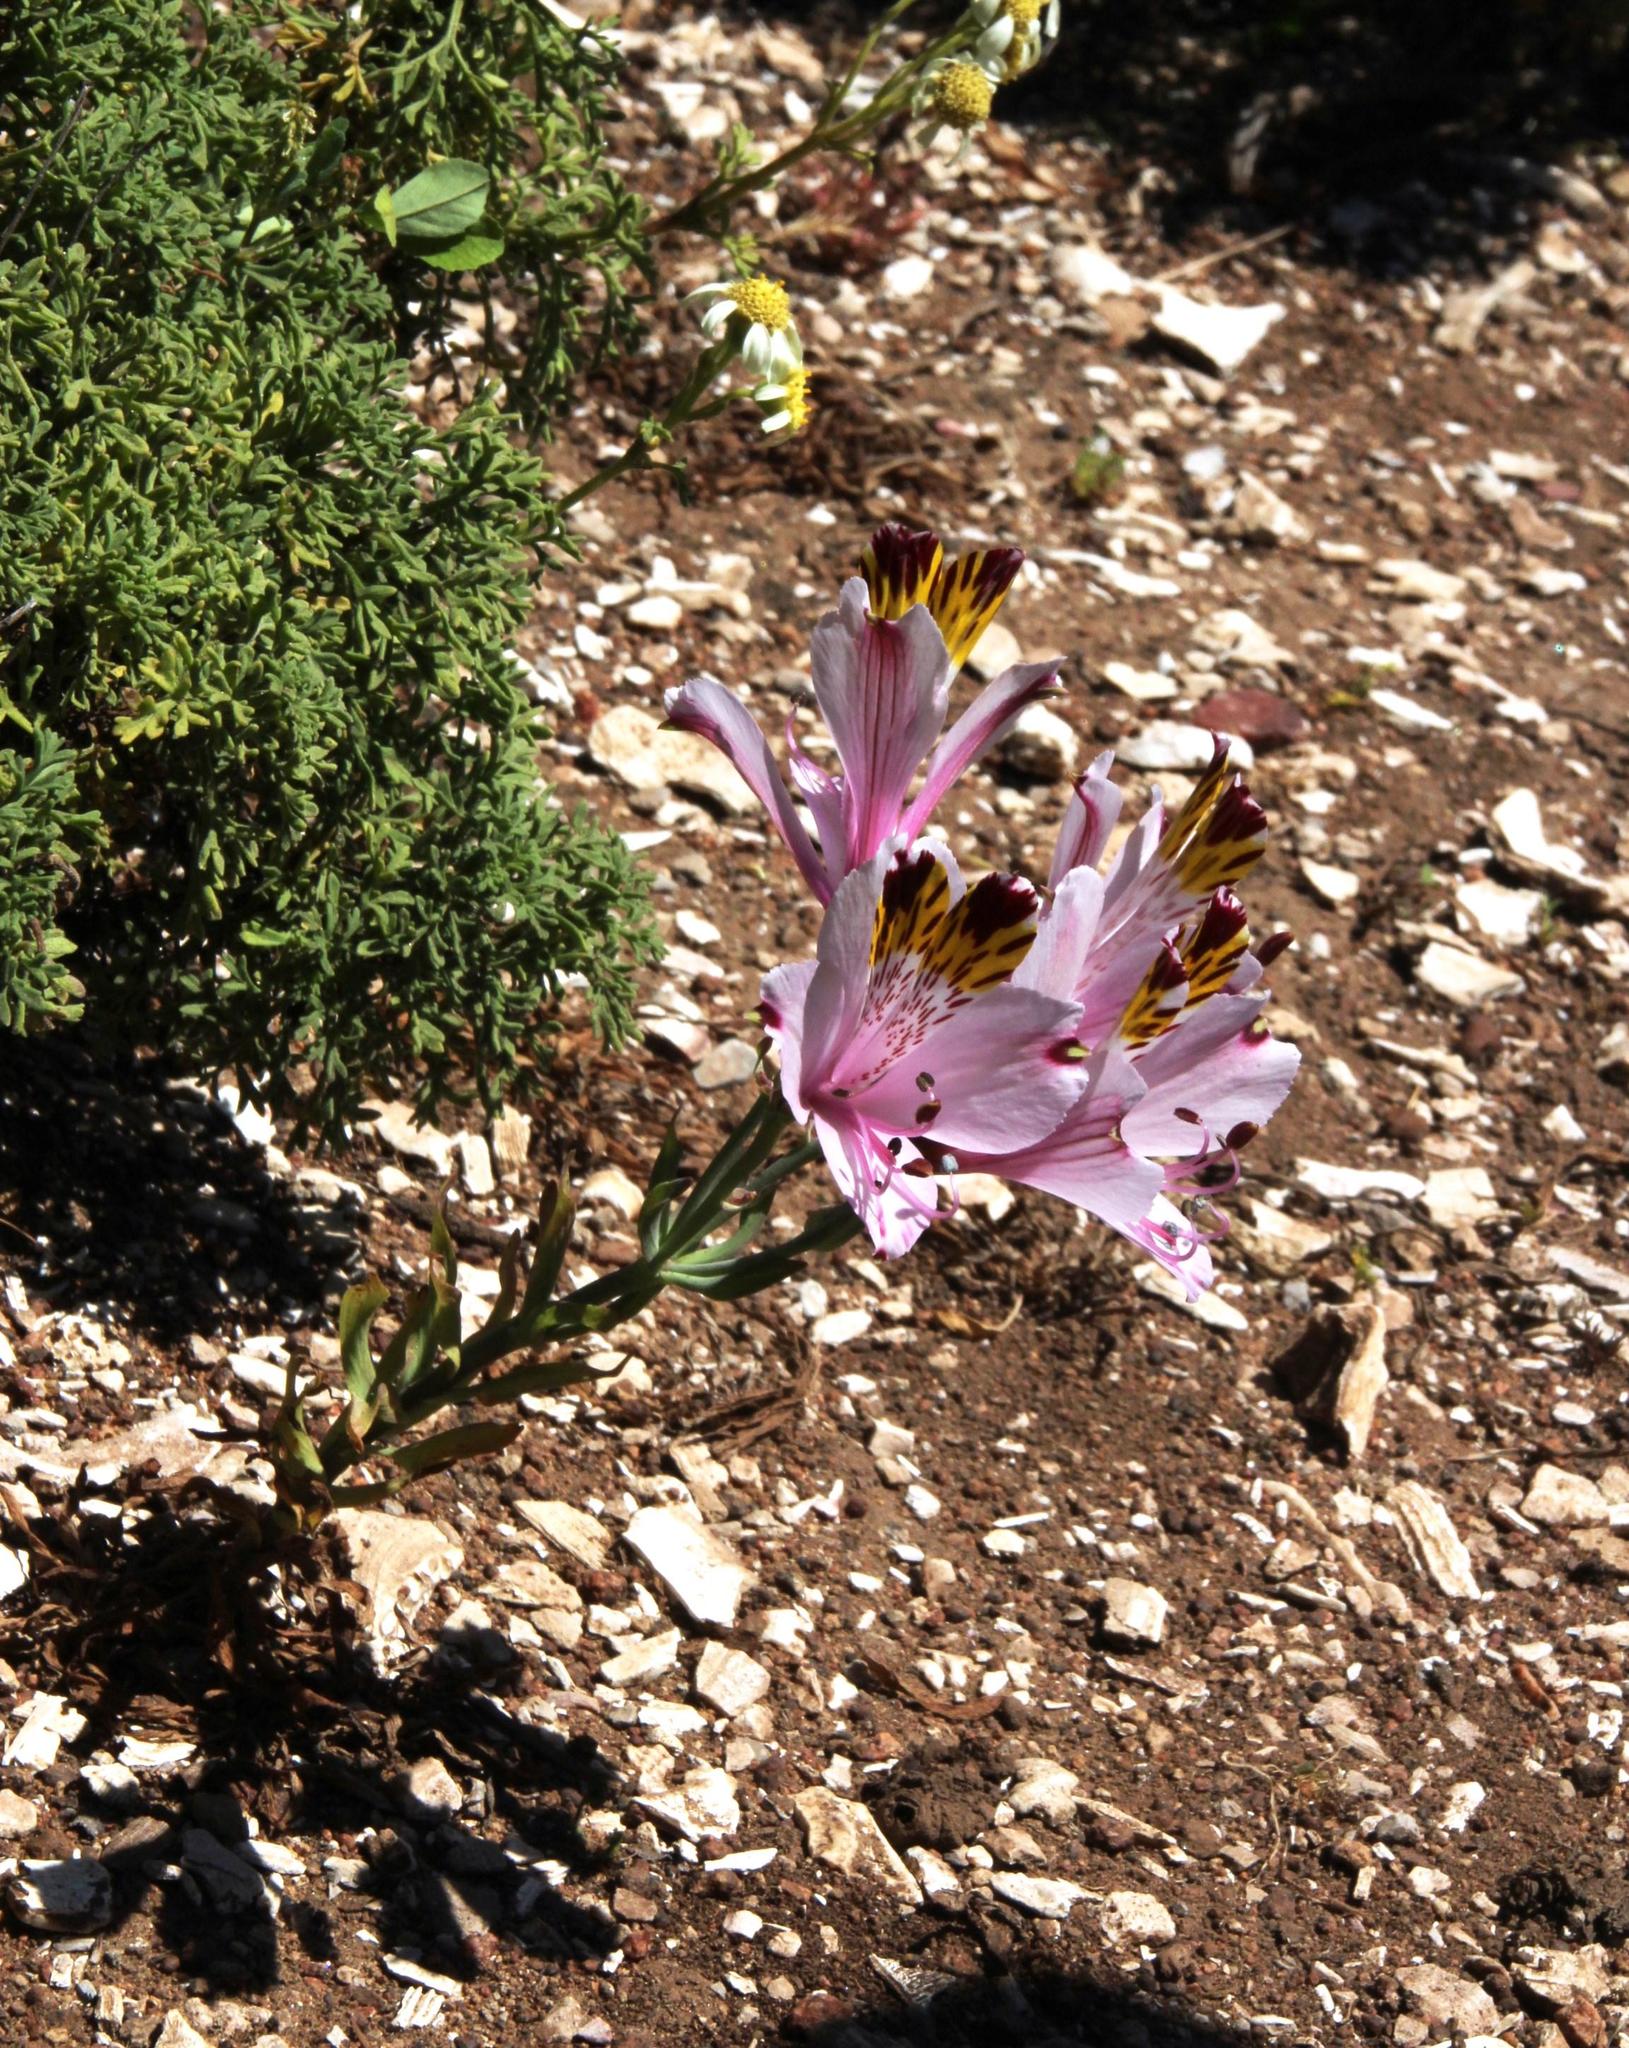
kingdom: Plantae
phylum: Tracheophyta
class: Liliopsida
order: Liliales
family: Alstroemeriaceae
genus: Alstroemeria
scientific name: Alstroemeria pulchra
